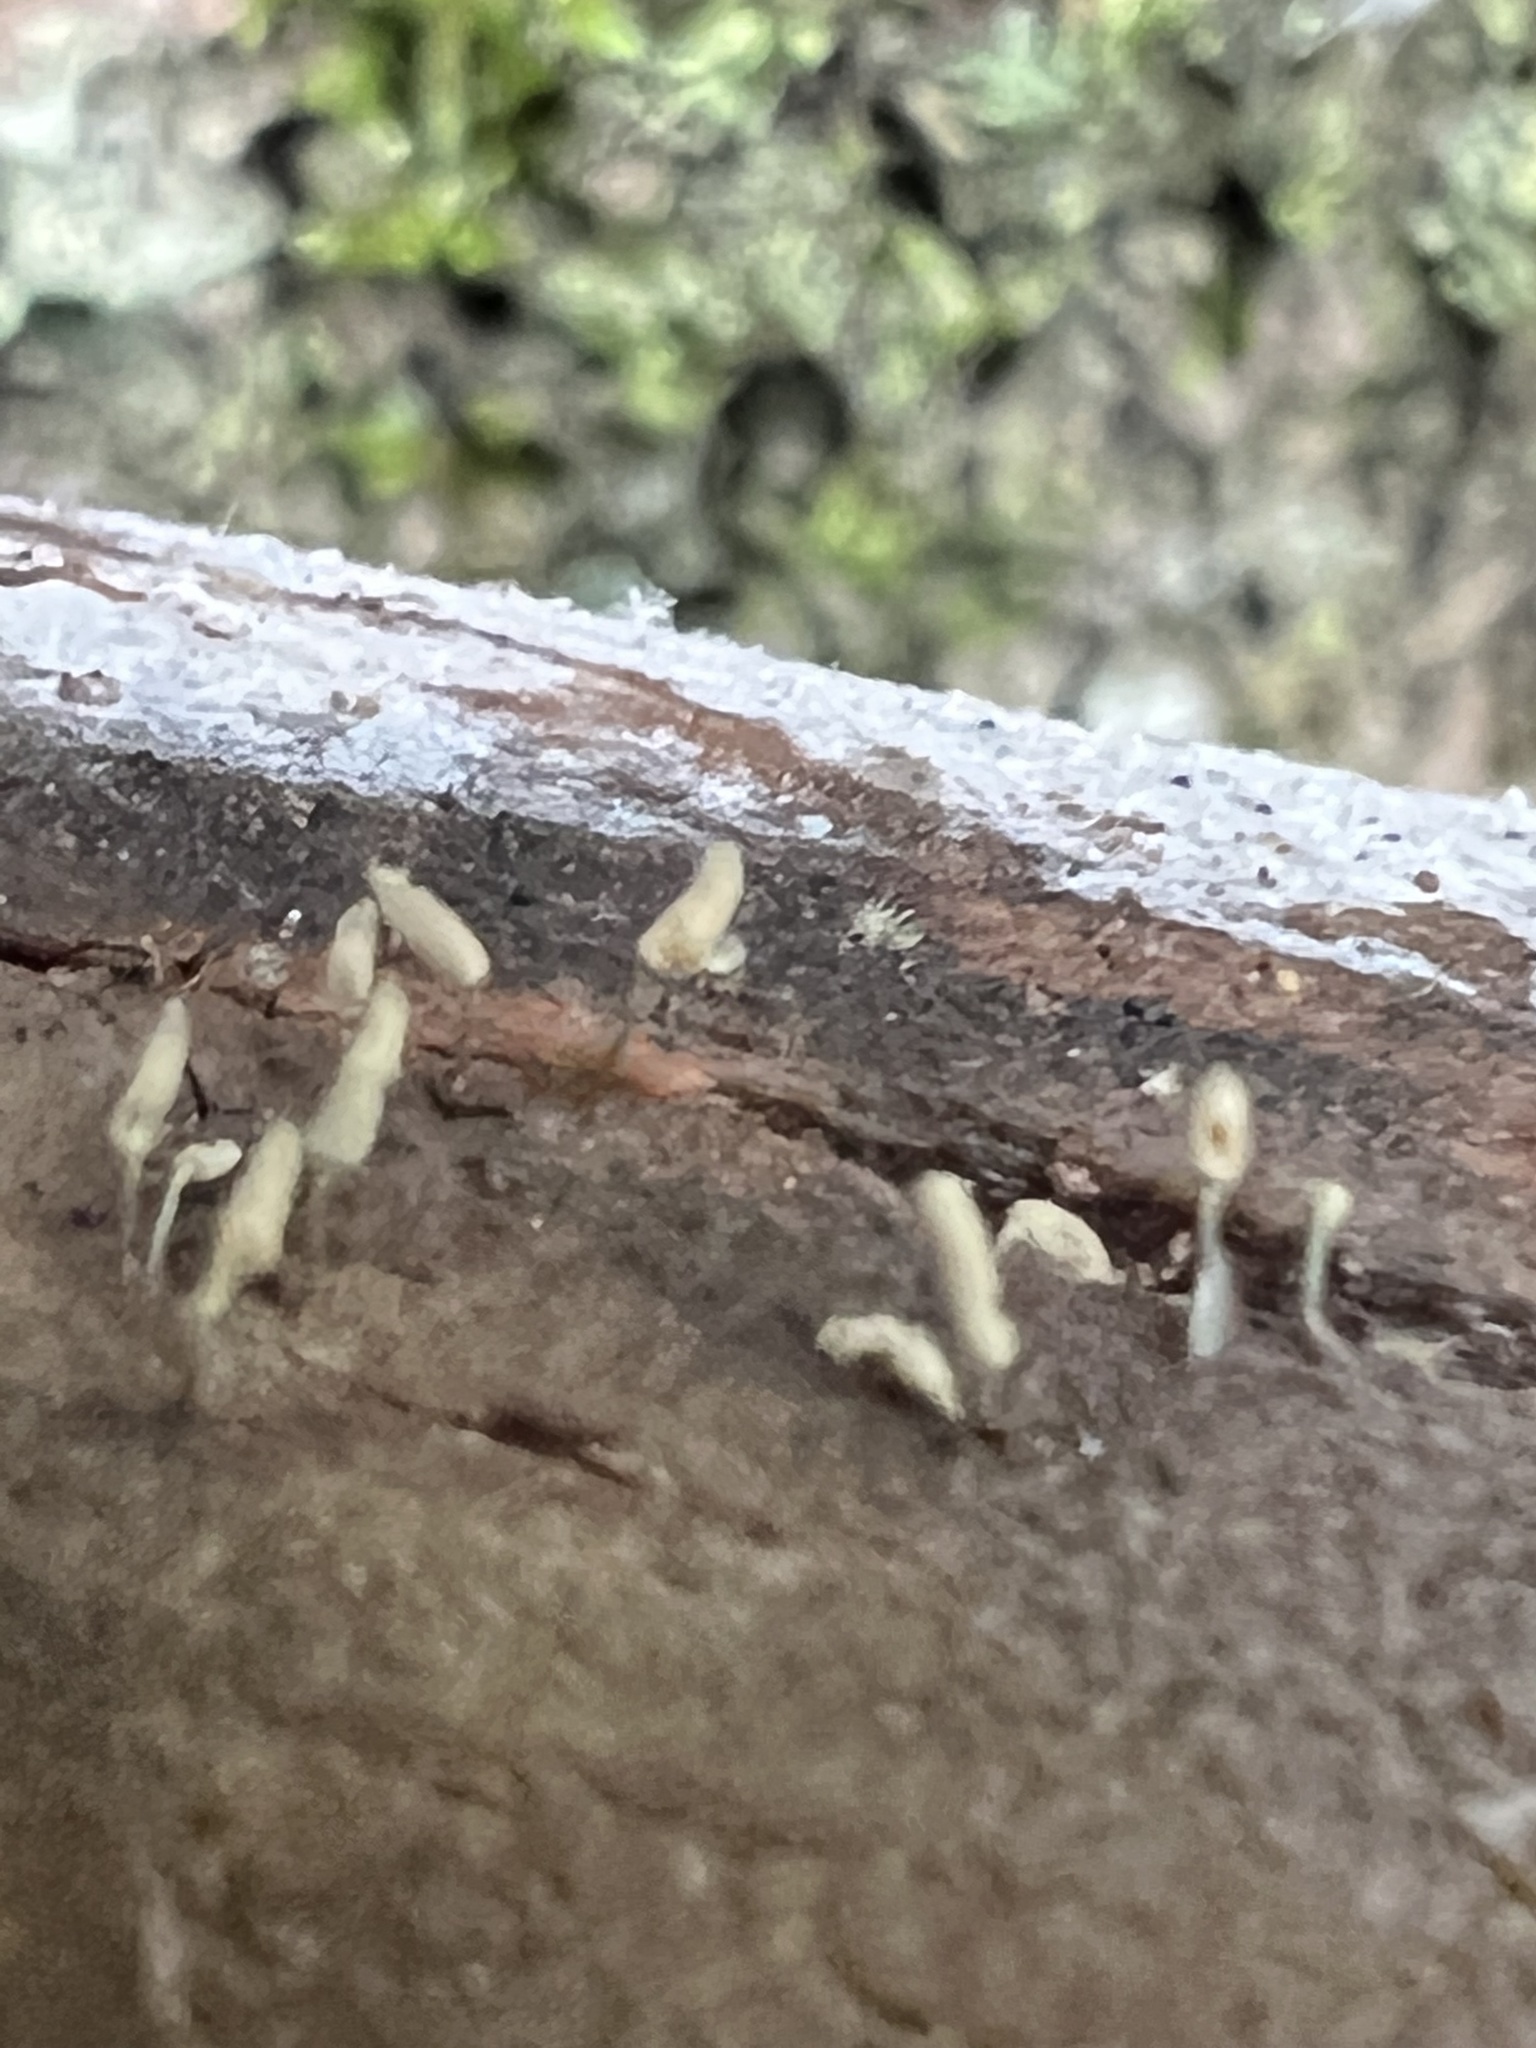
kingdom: Protozoa
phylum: Mycetozoa
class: Myxomycetes
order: Trichiales
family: Arcyriaceae
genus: Arcyria
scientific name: Arcyria cinerea
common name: White carnival candy slime mold
